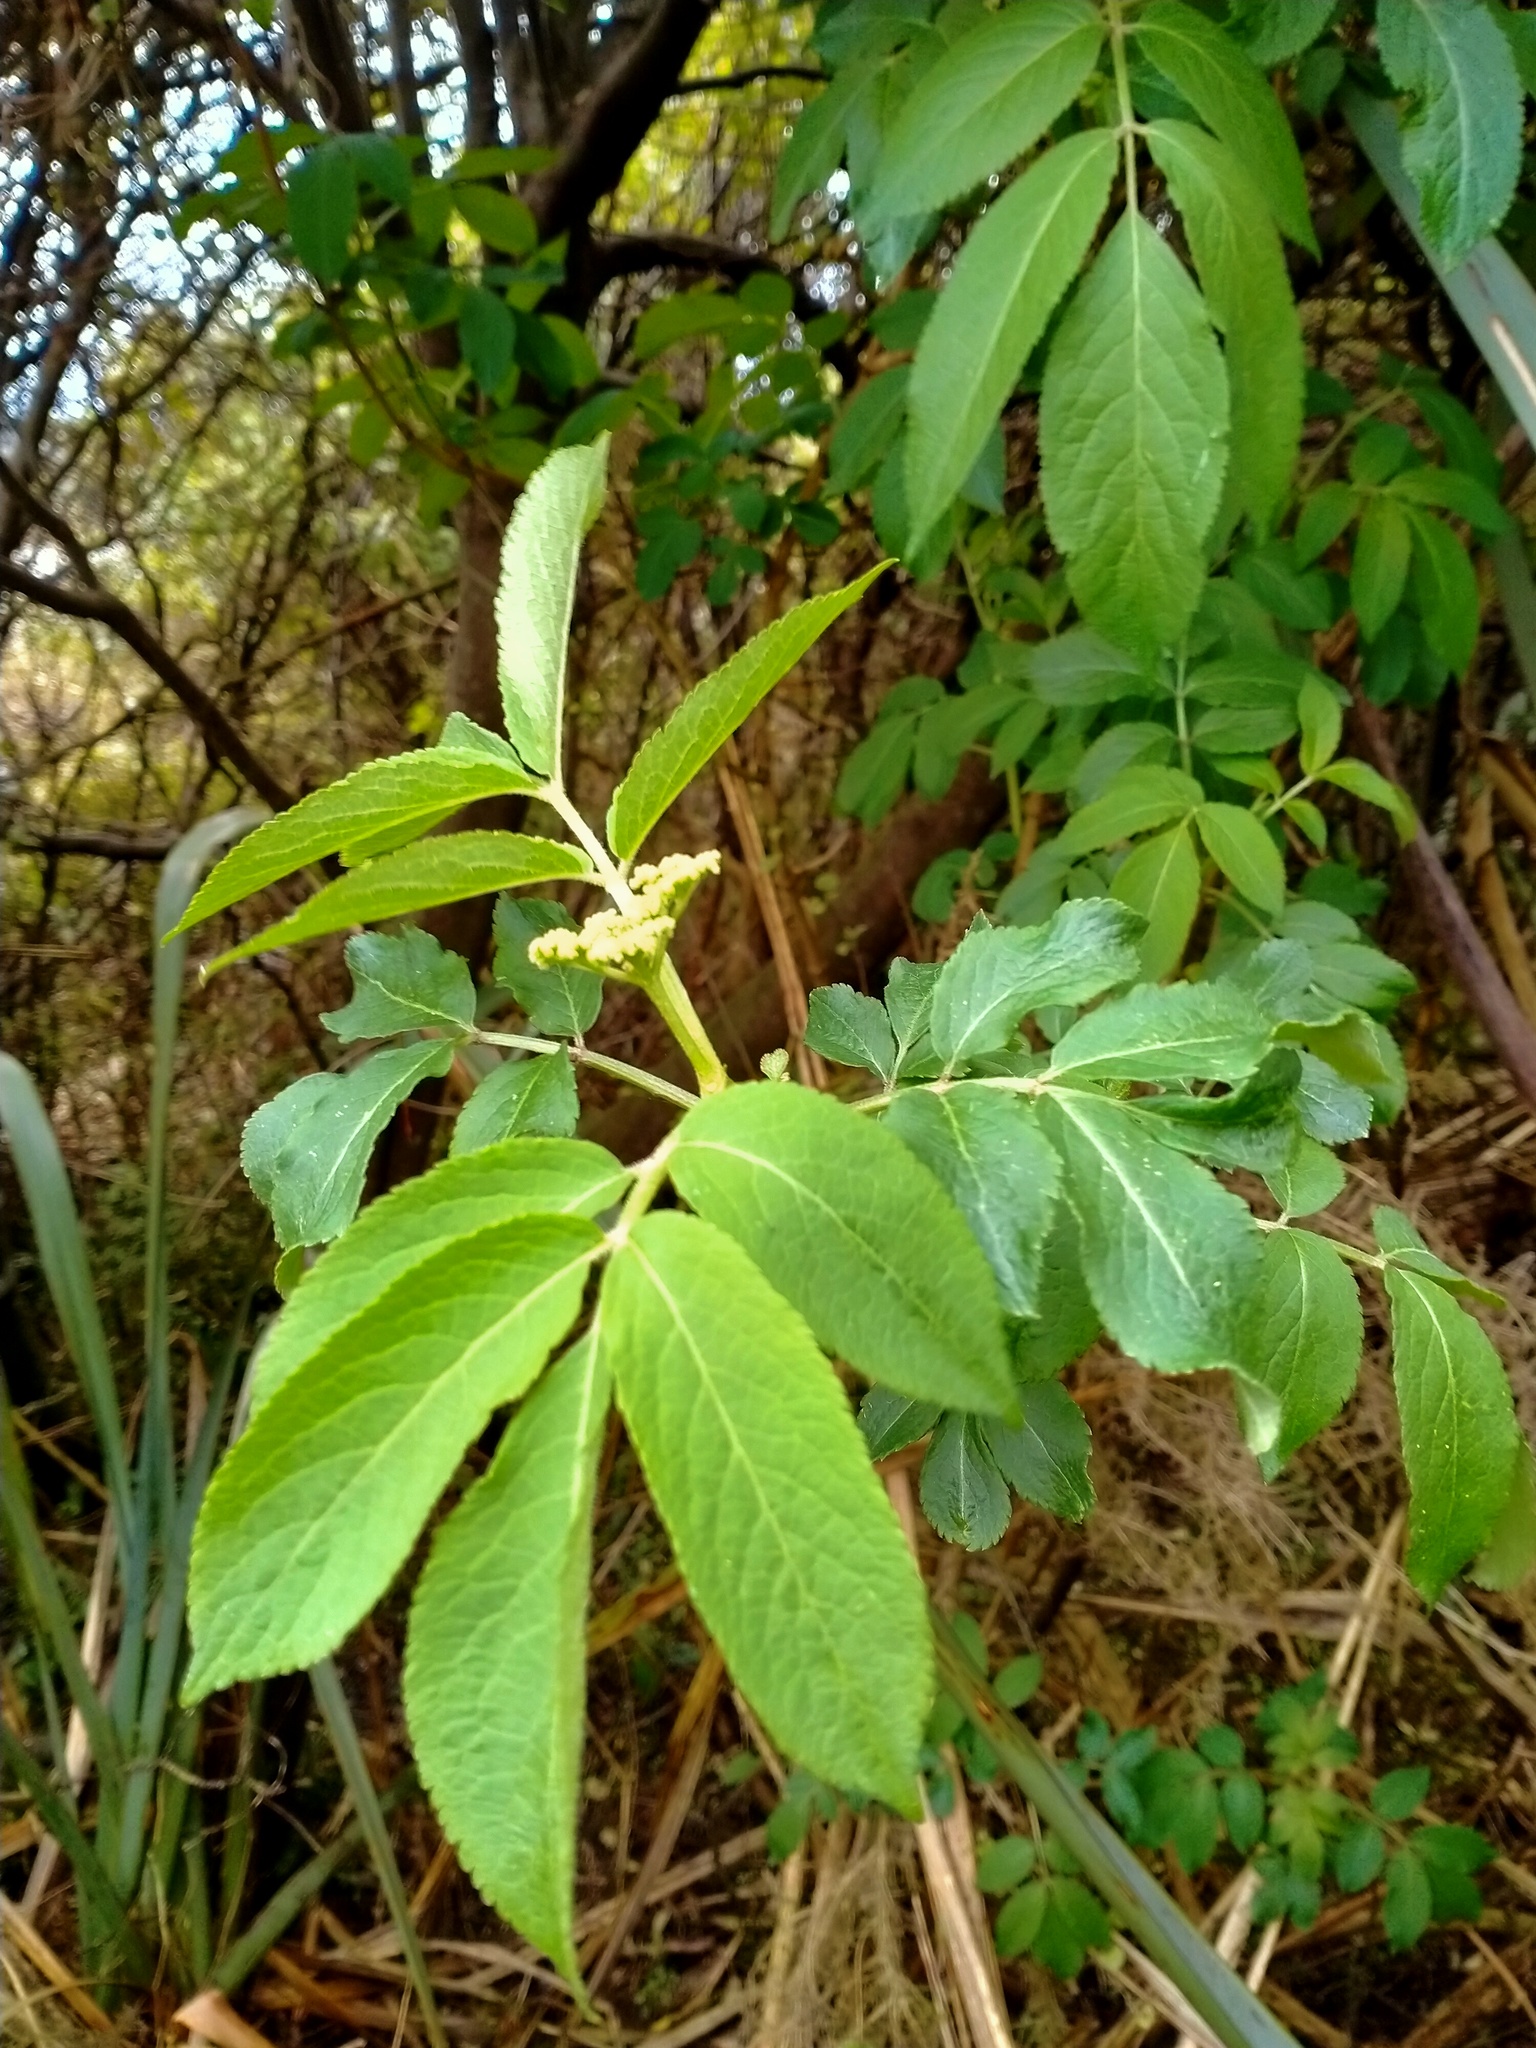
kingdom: Plantae
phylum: Tracheophyta
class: Magnoliopsida
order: Dipsacales
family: Viburnaceae
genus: Sambucus
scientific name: Sambucus nigra
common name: Elder
